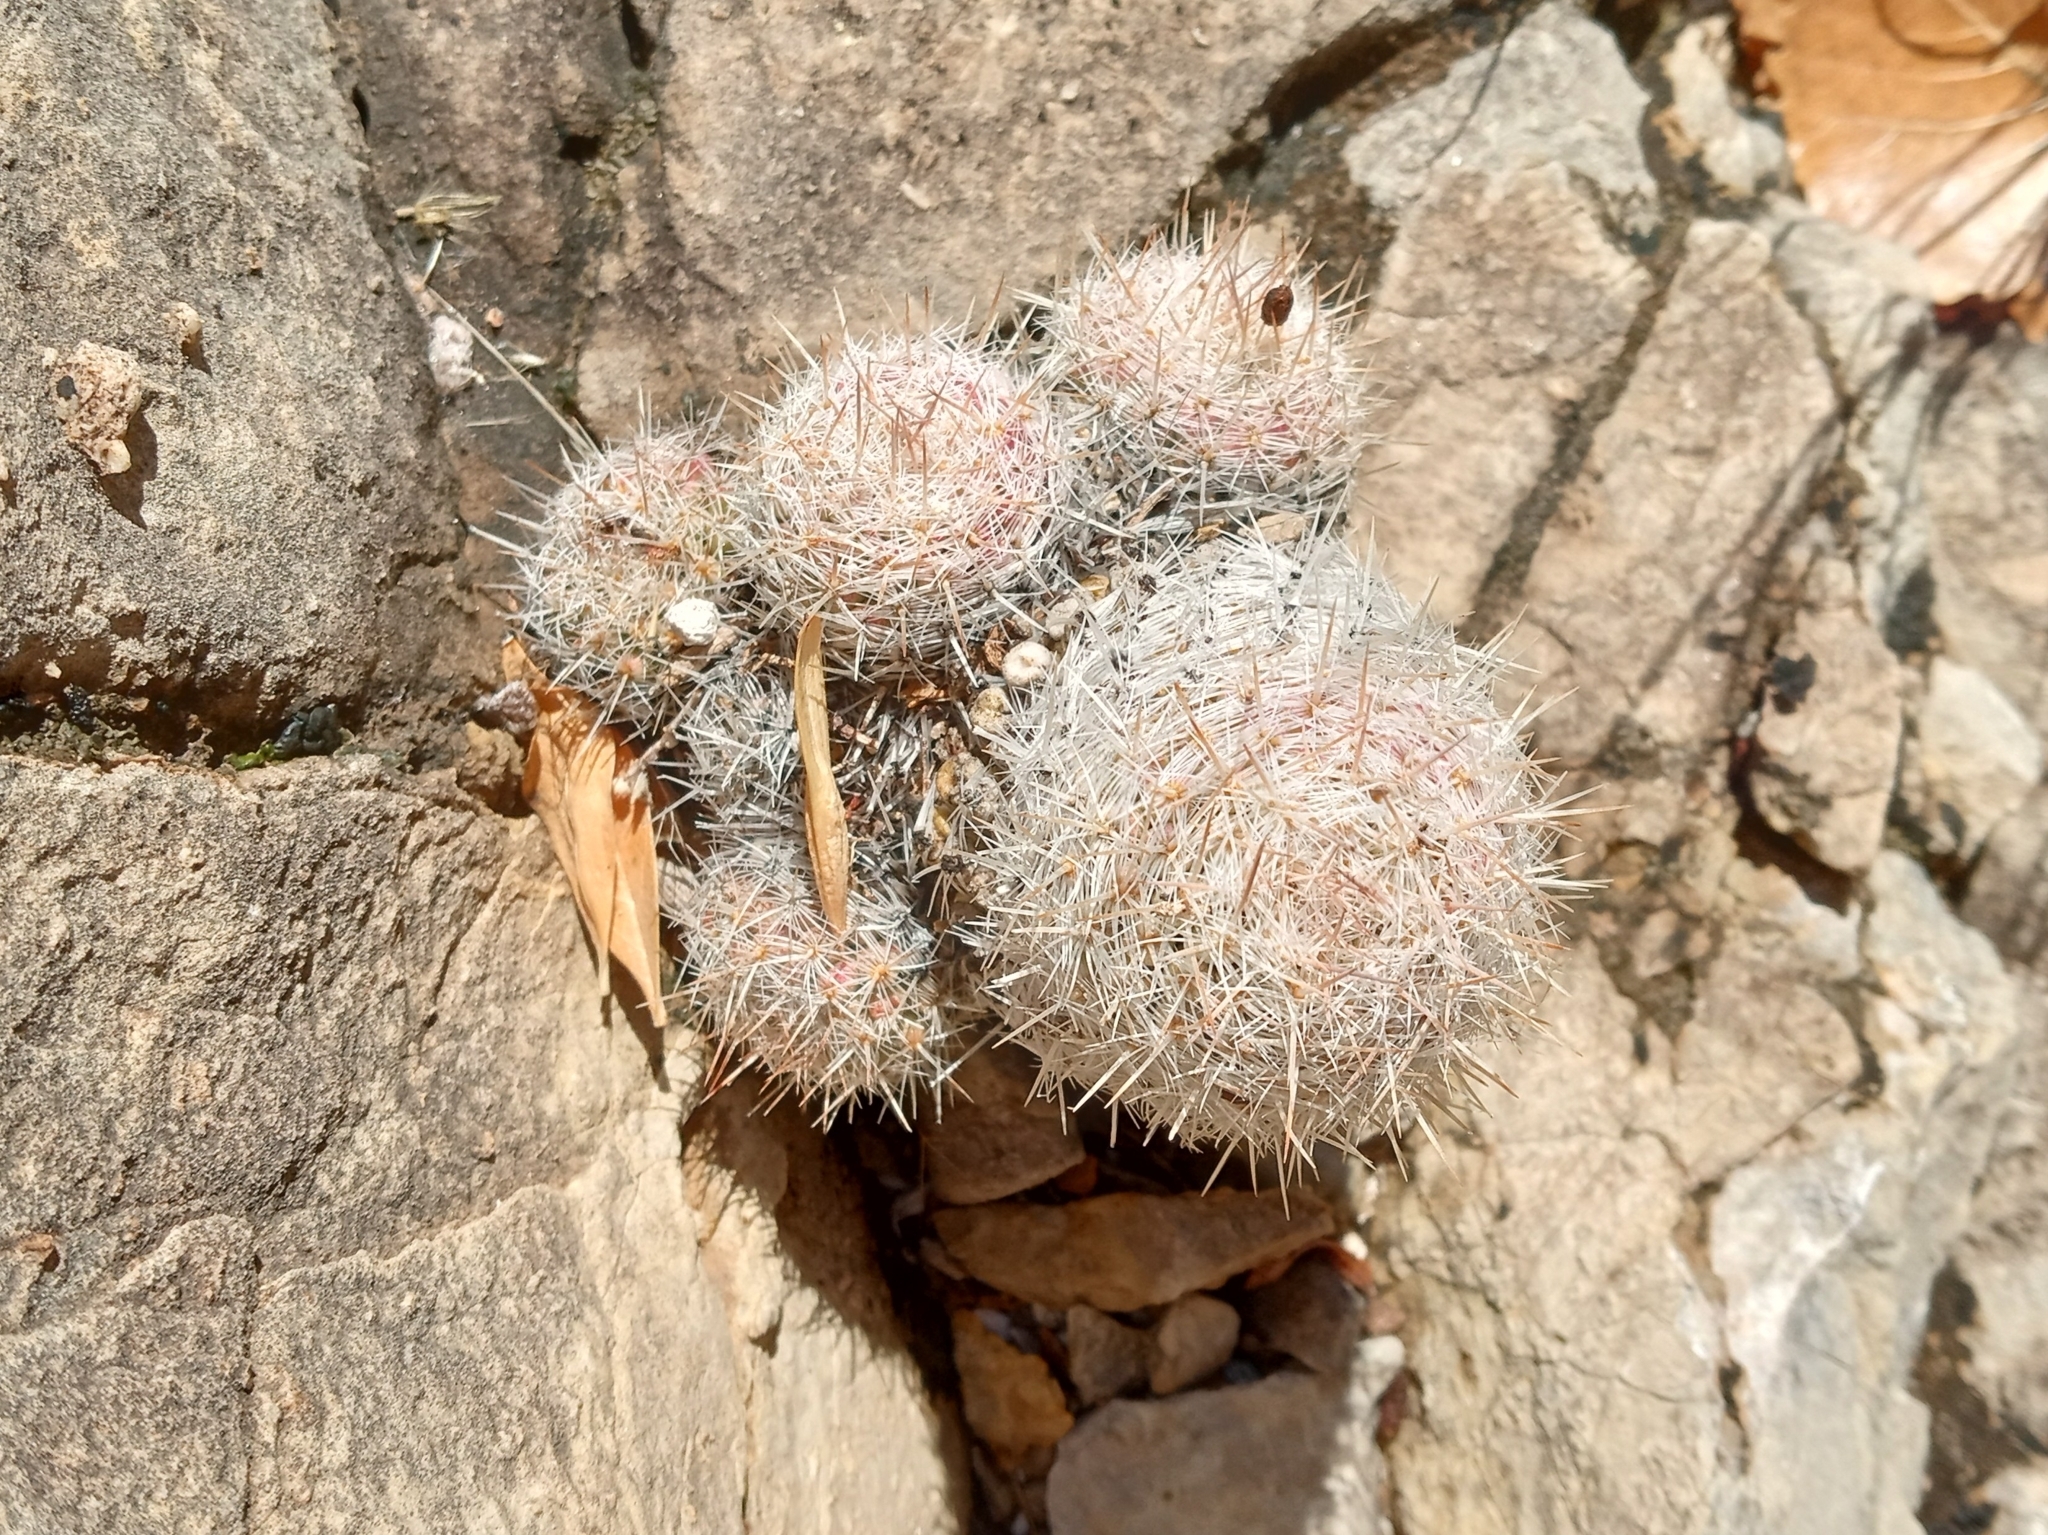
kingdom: Plantae
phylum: Tracheophyta
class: Magnoliopsida
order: Caryophyllales
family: Cactaceae
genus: Pelecyphora
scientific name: Pelecyphora tuberculosa
